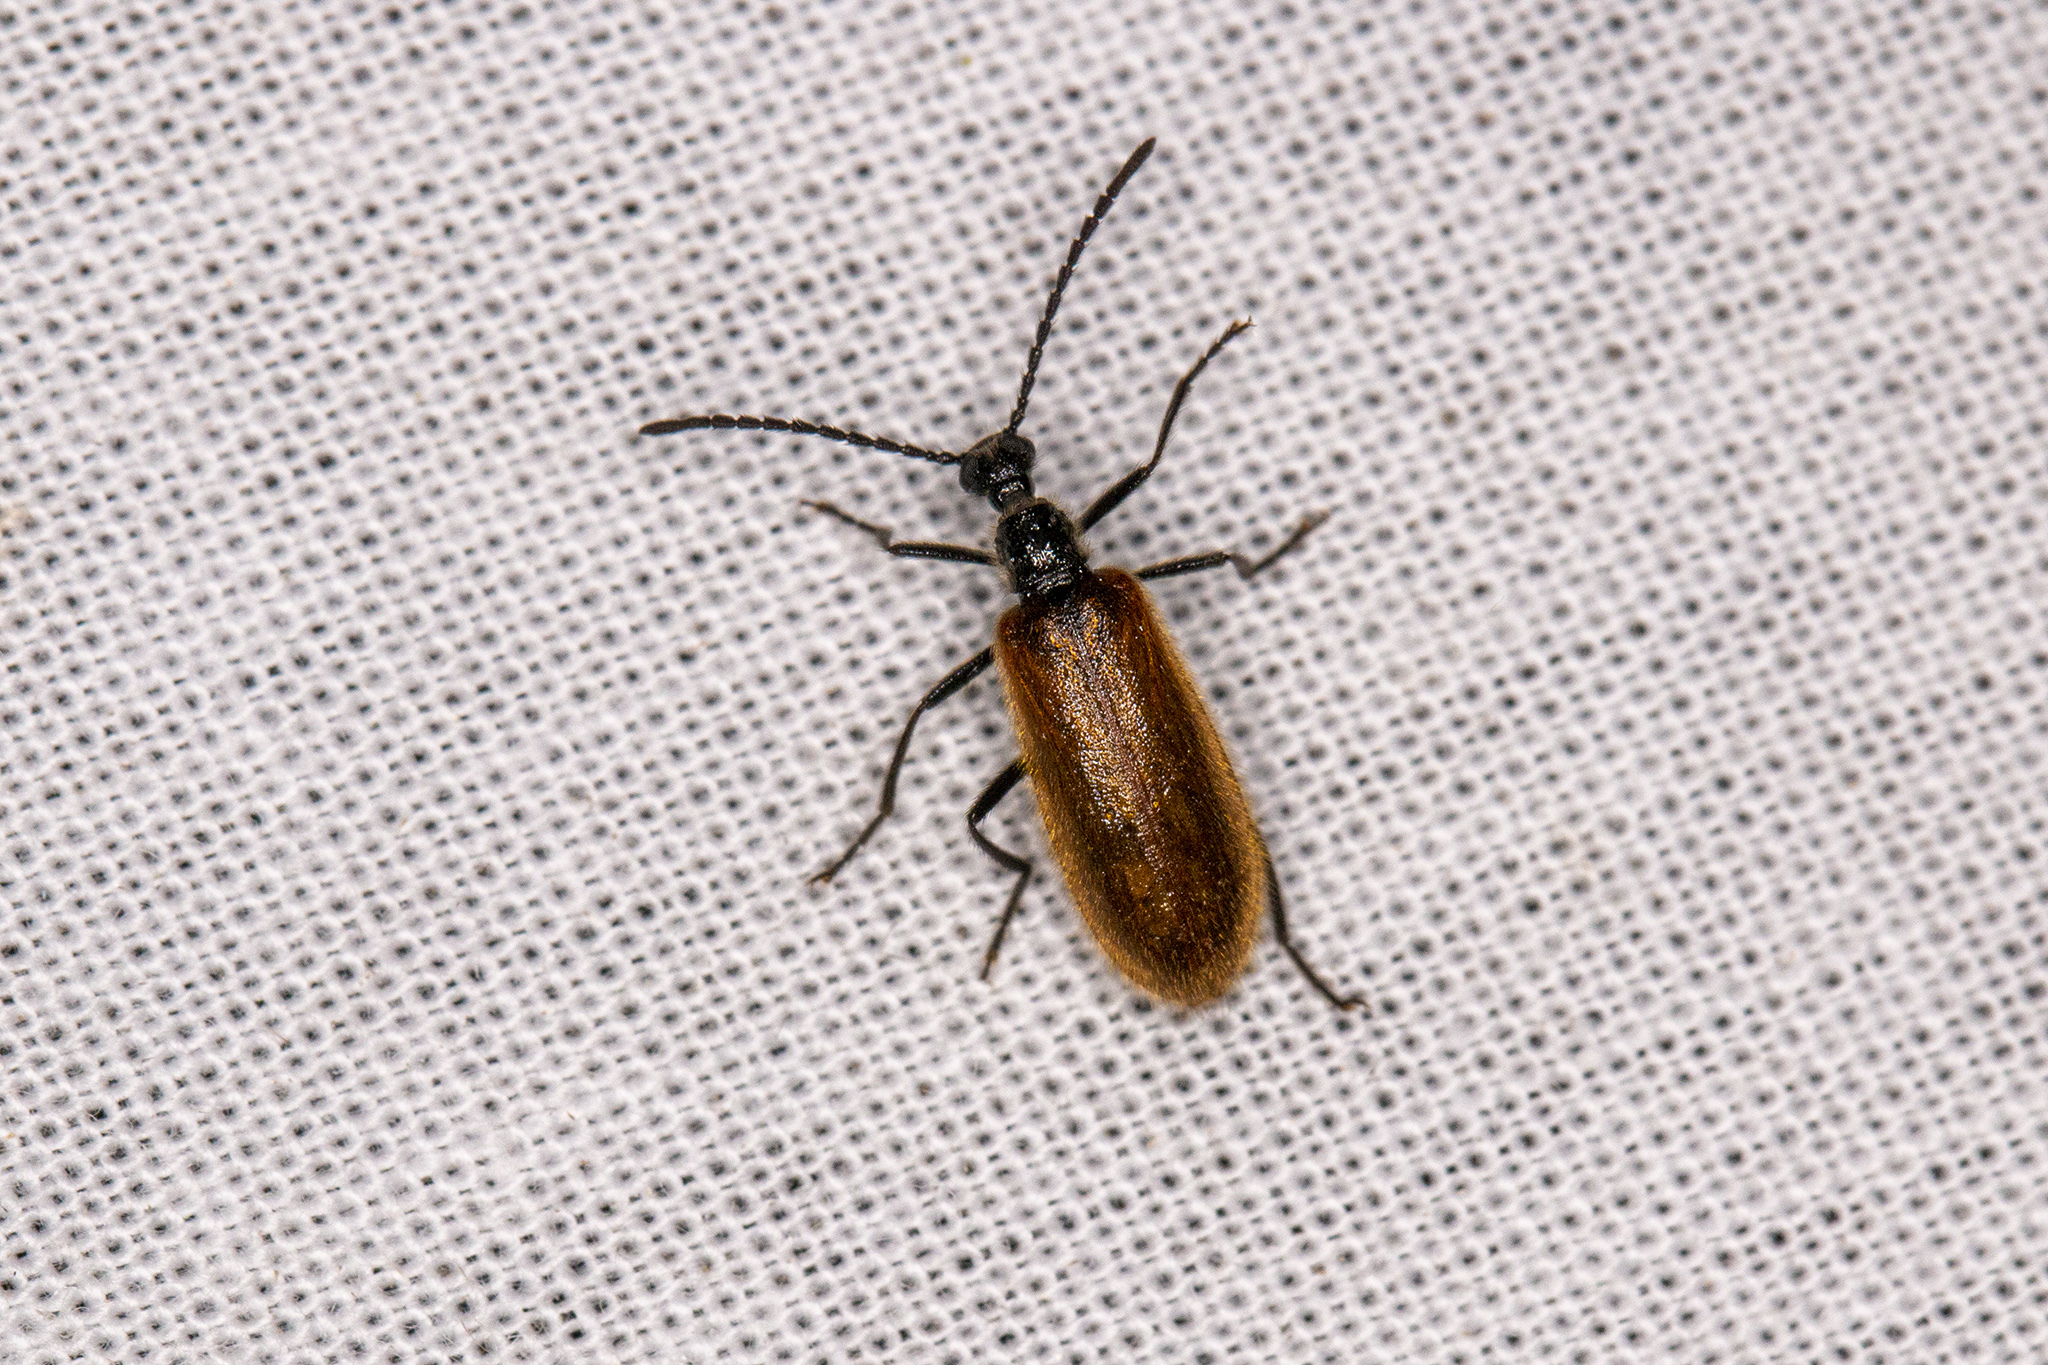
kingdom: Animalia
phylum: Arthropoda
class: Insecta
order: Coleoptera
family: Tenebrionidae
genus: Lagria
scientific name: Lagria hirta
